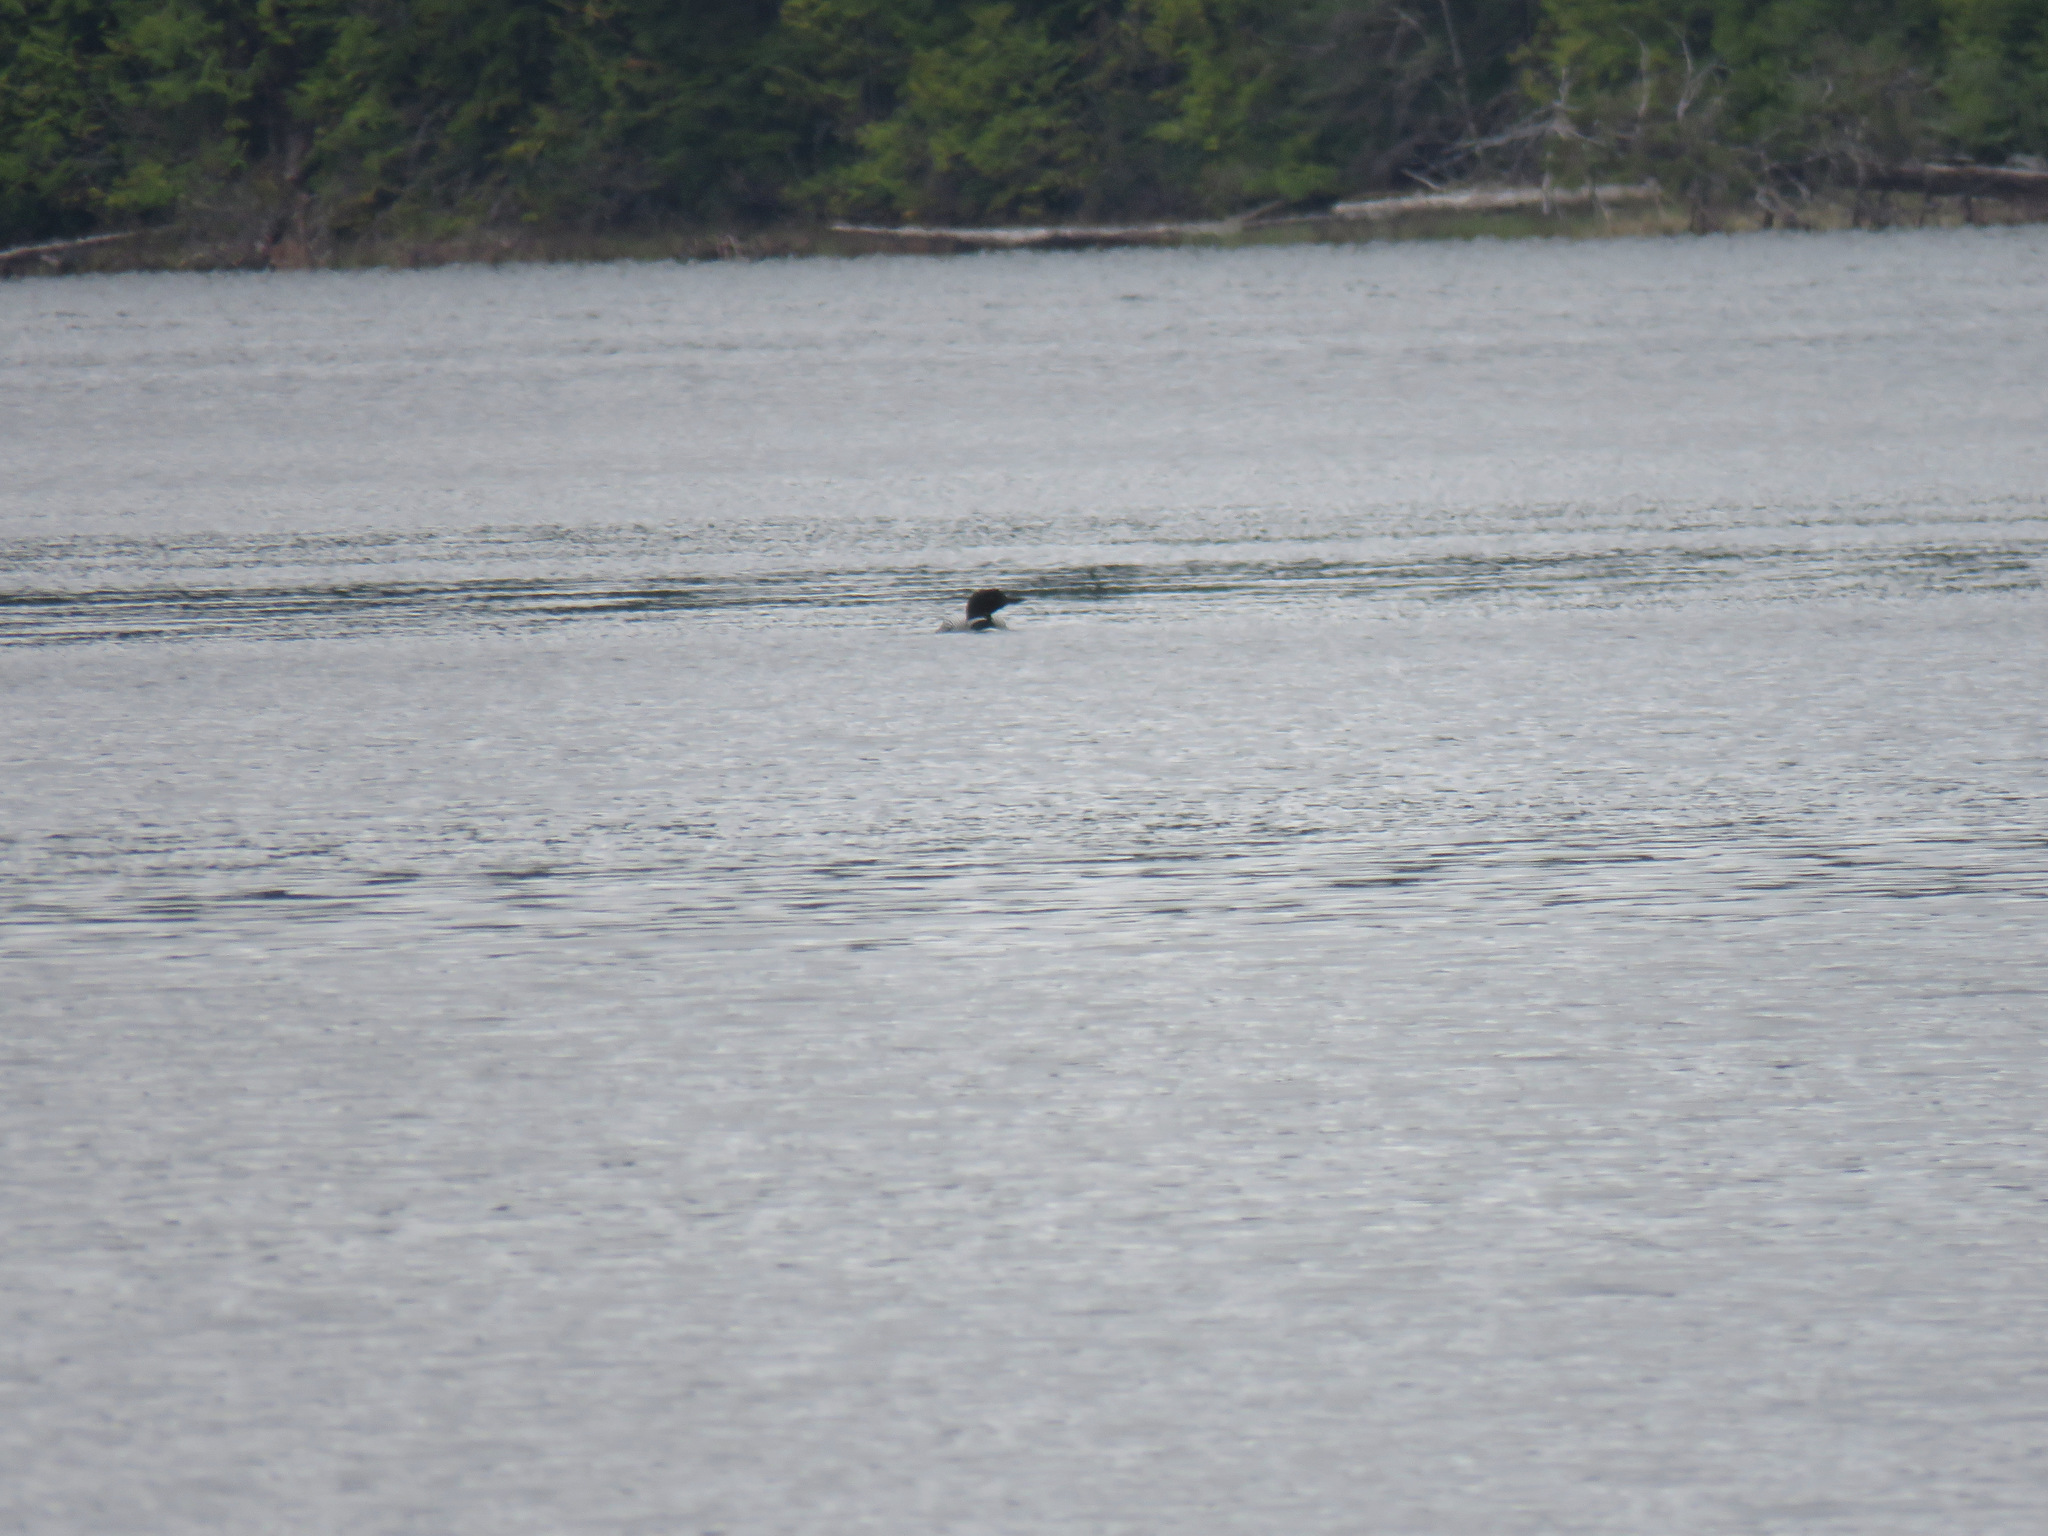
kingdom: Animalia
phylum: Chordata
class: Aves
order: Gaviiformes
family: Gaviidae
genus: Gavia
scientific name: Gavia immer
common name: Common loon
